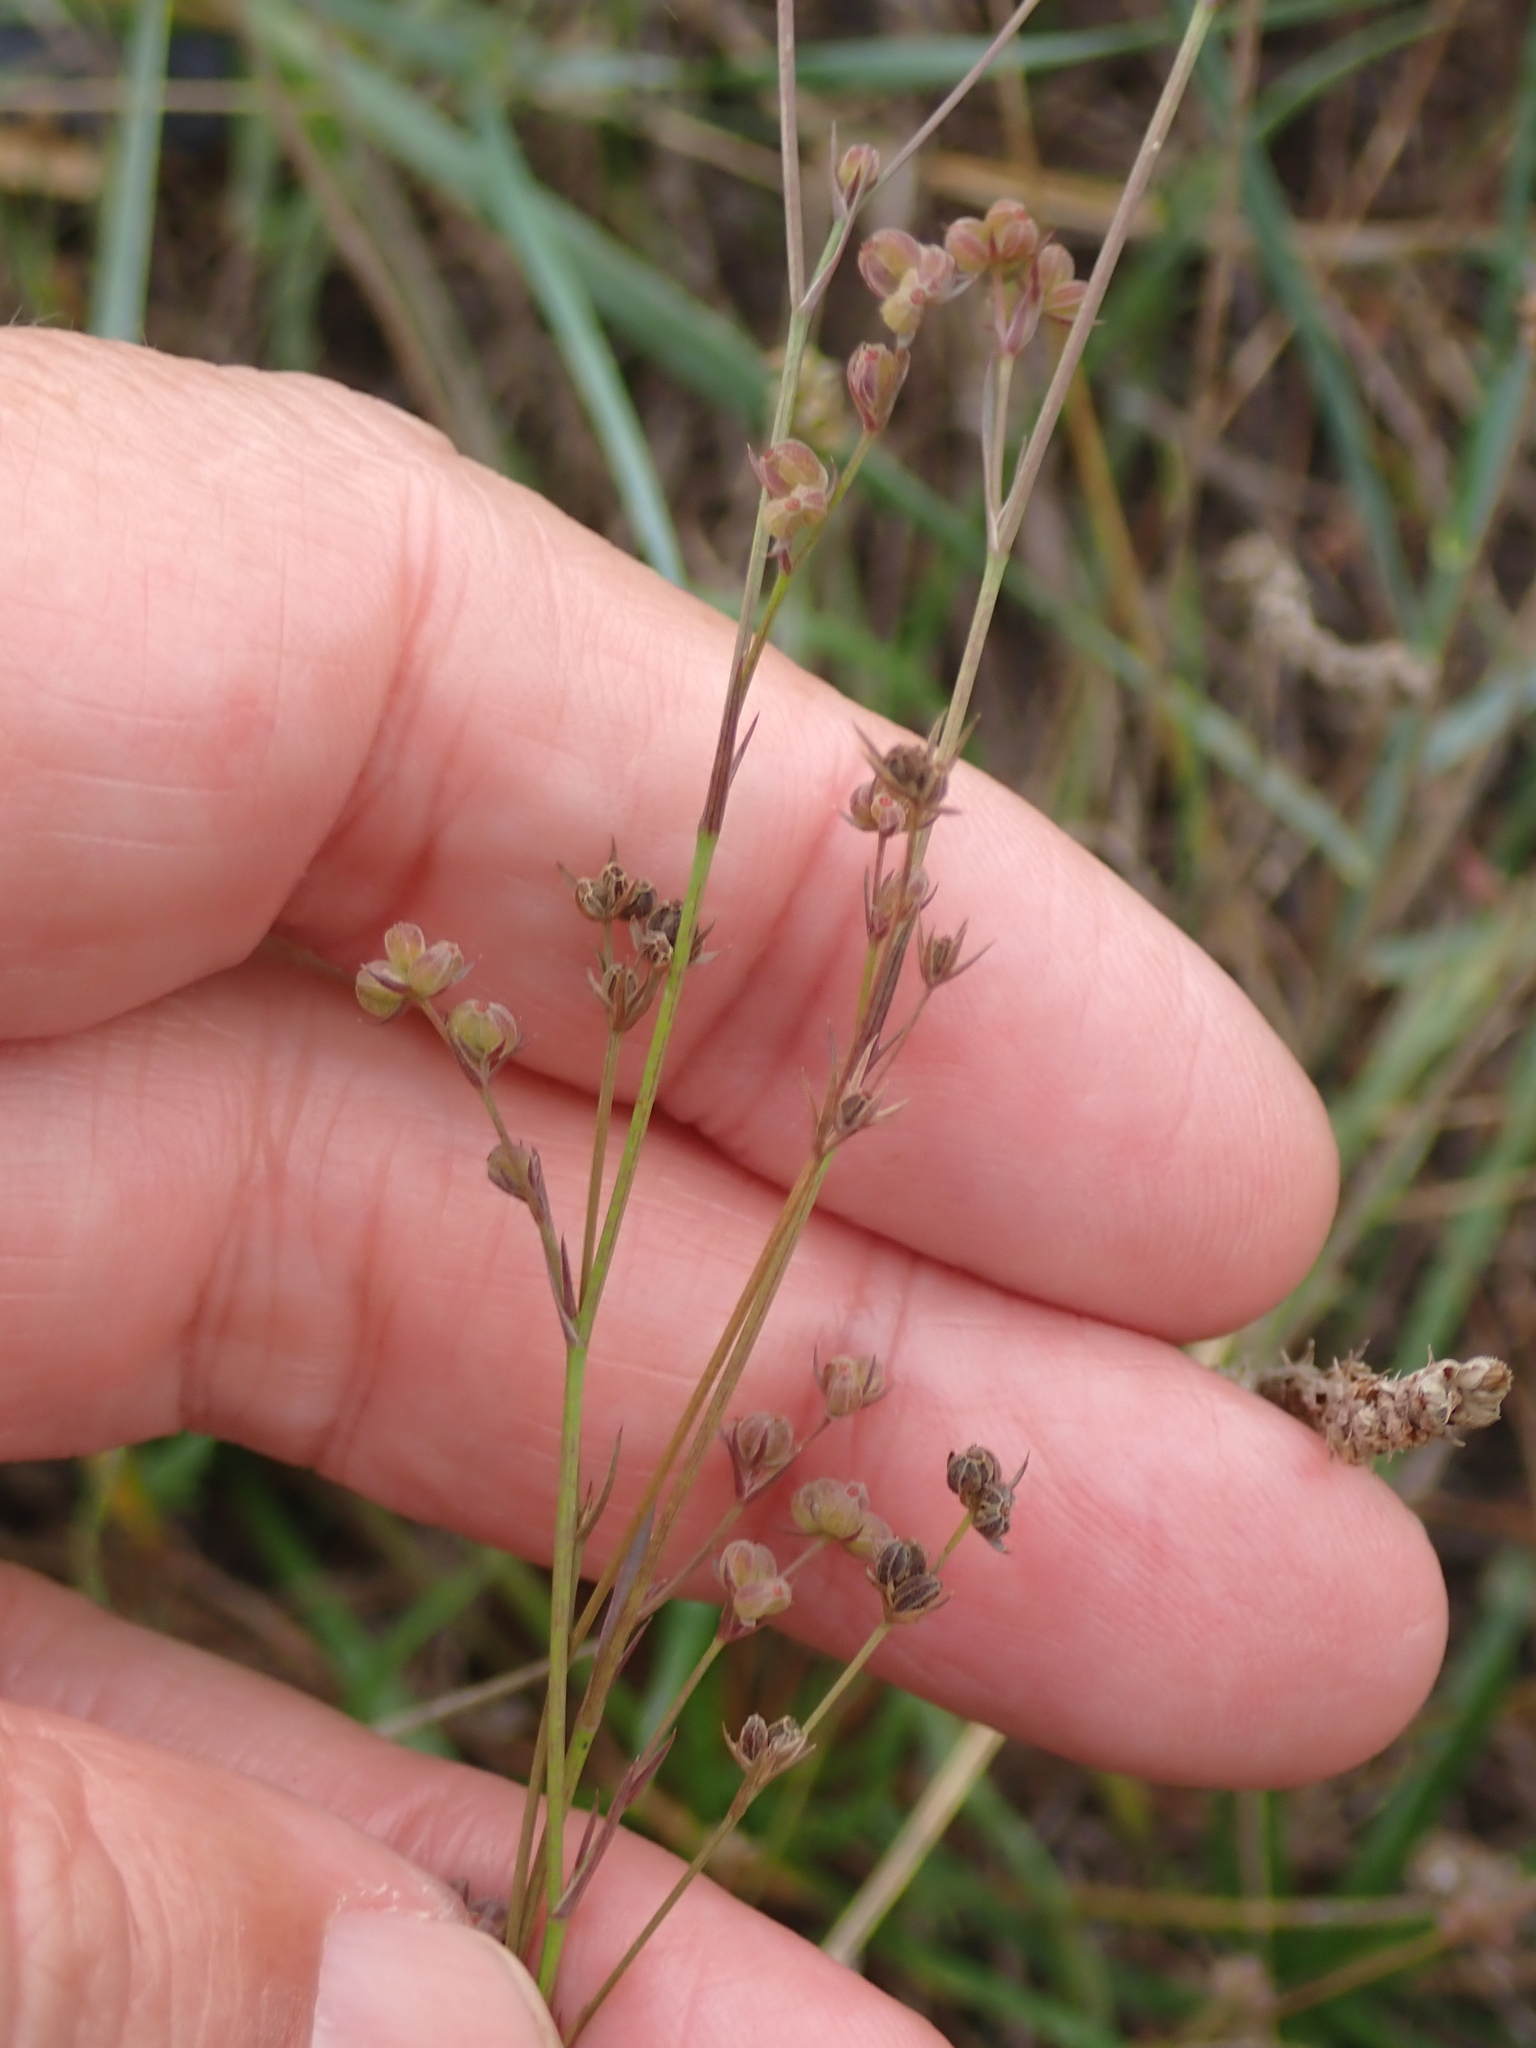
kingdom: Plantae
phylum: Tracheophyta
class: Magnoliopsida
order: Apiales
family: Apiaceae
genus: Bupleurum
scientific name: Bupleurum tenuissimum
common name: Slender hare's-ear
